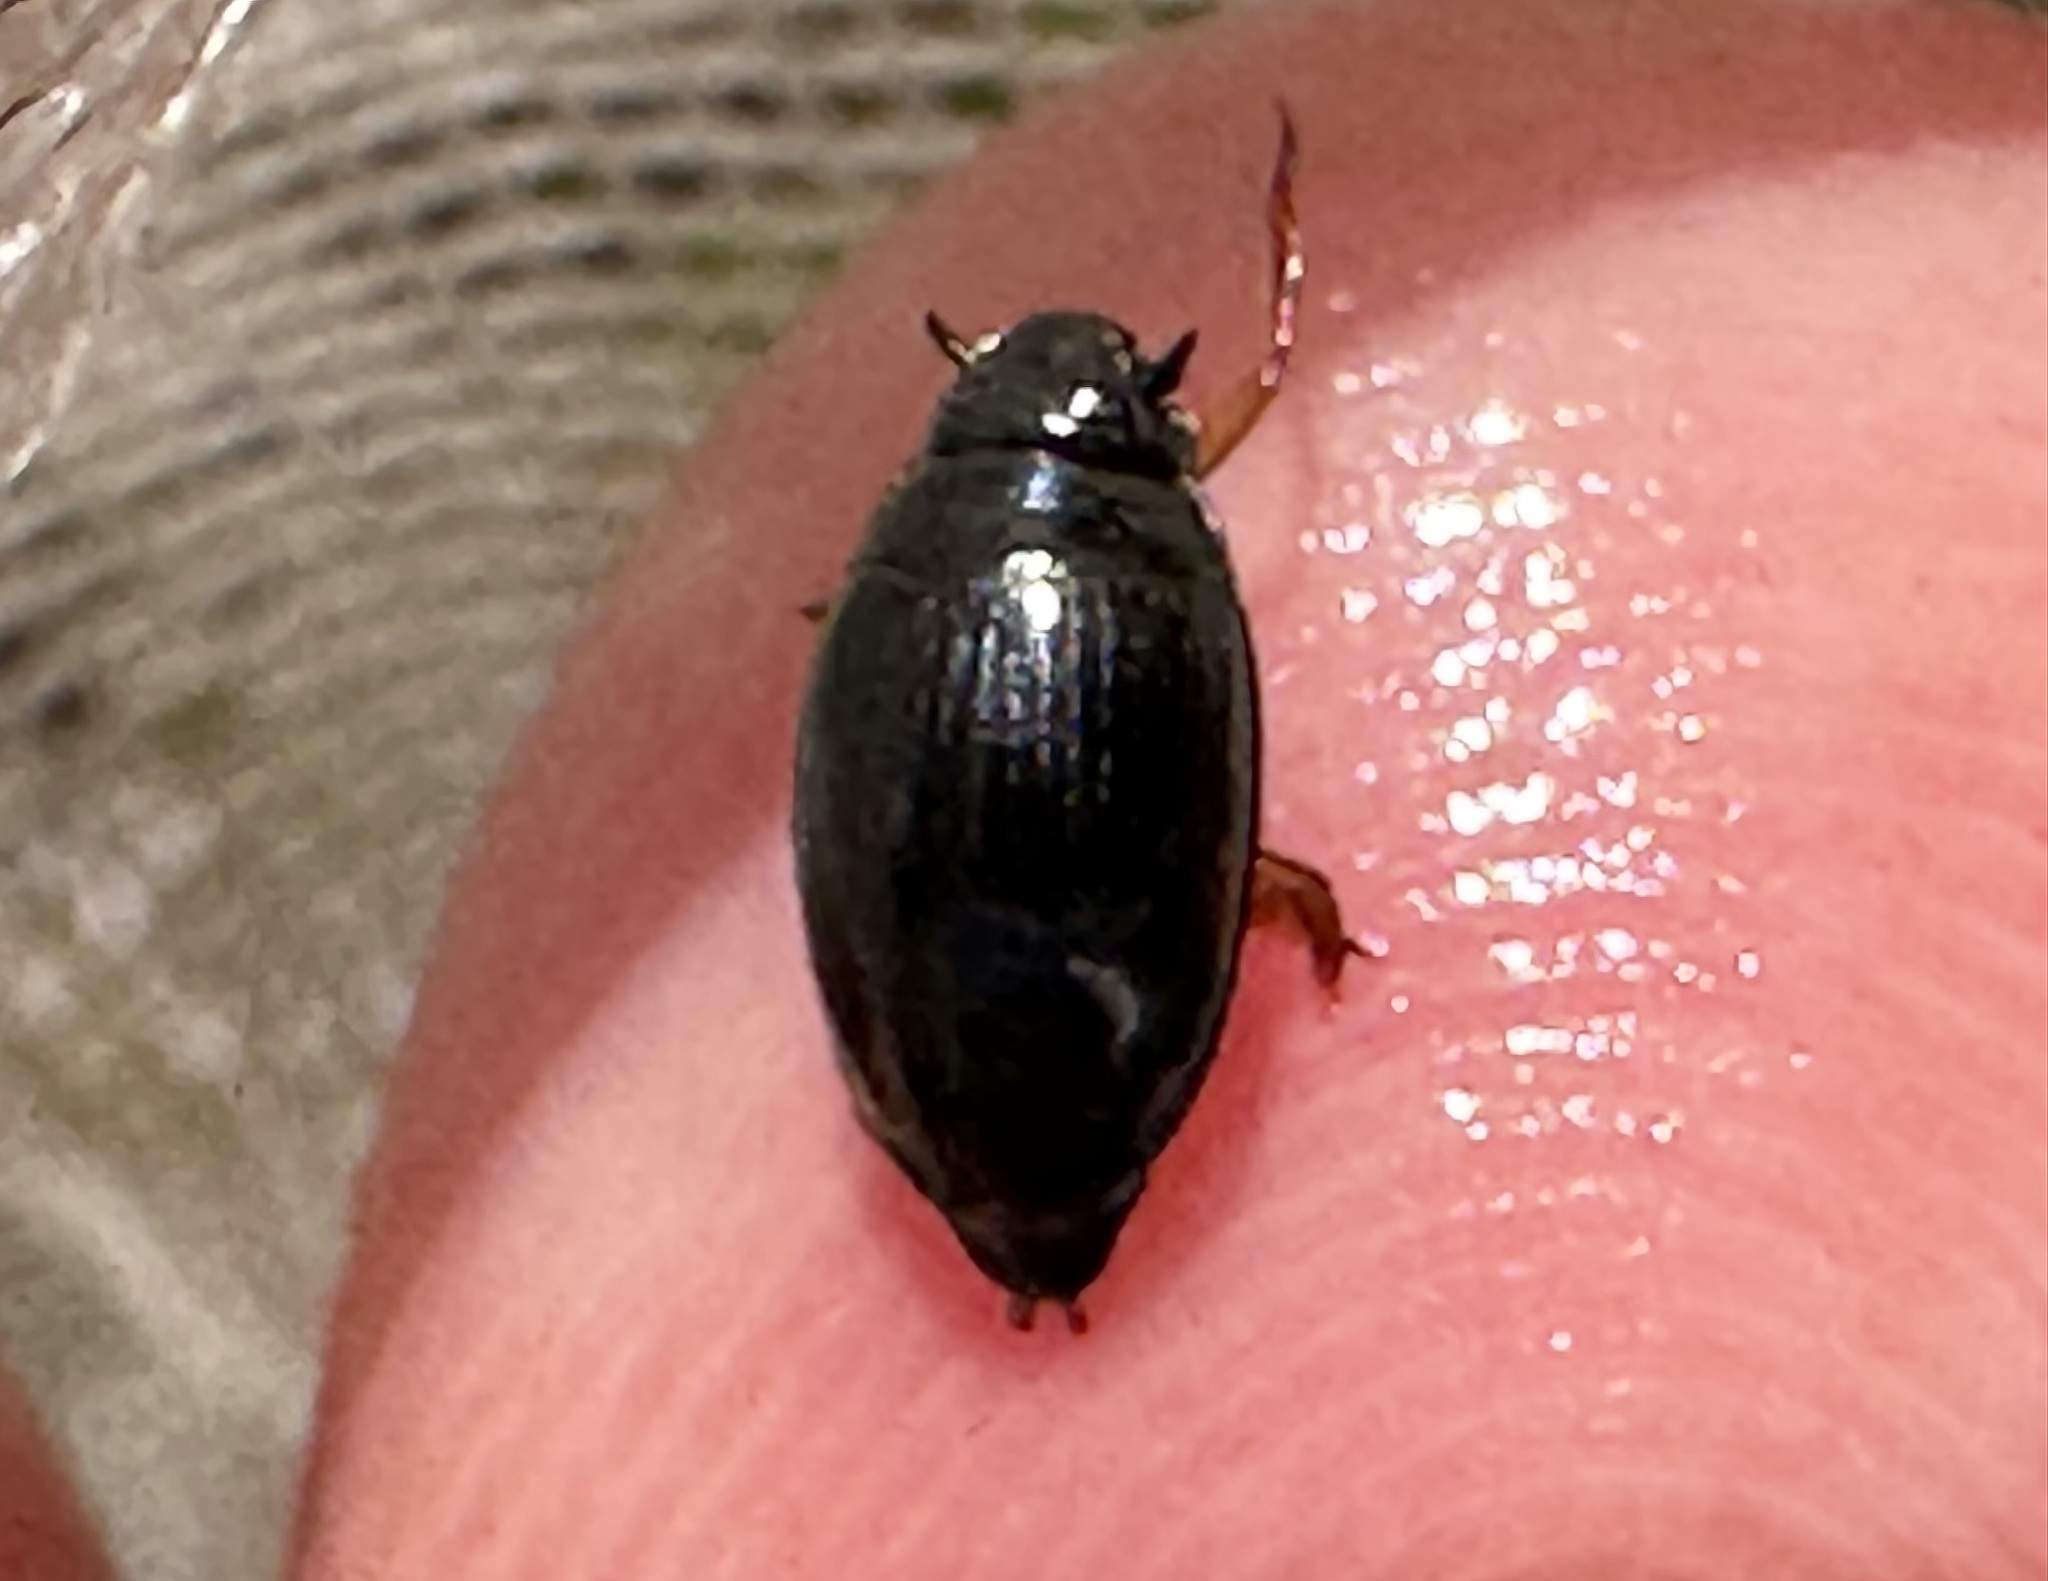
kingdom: Animalia
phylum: Arthropoda
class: Insecta
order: Coleoptera
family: Gyrinidae
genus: Gyrinus
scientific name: Gyrinus
